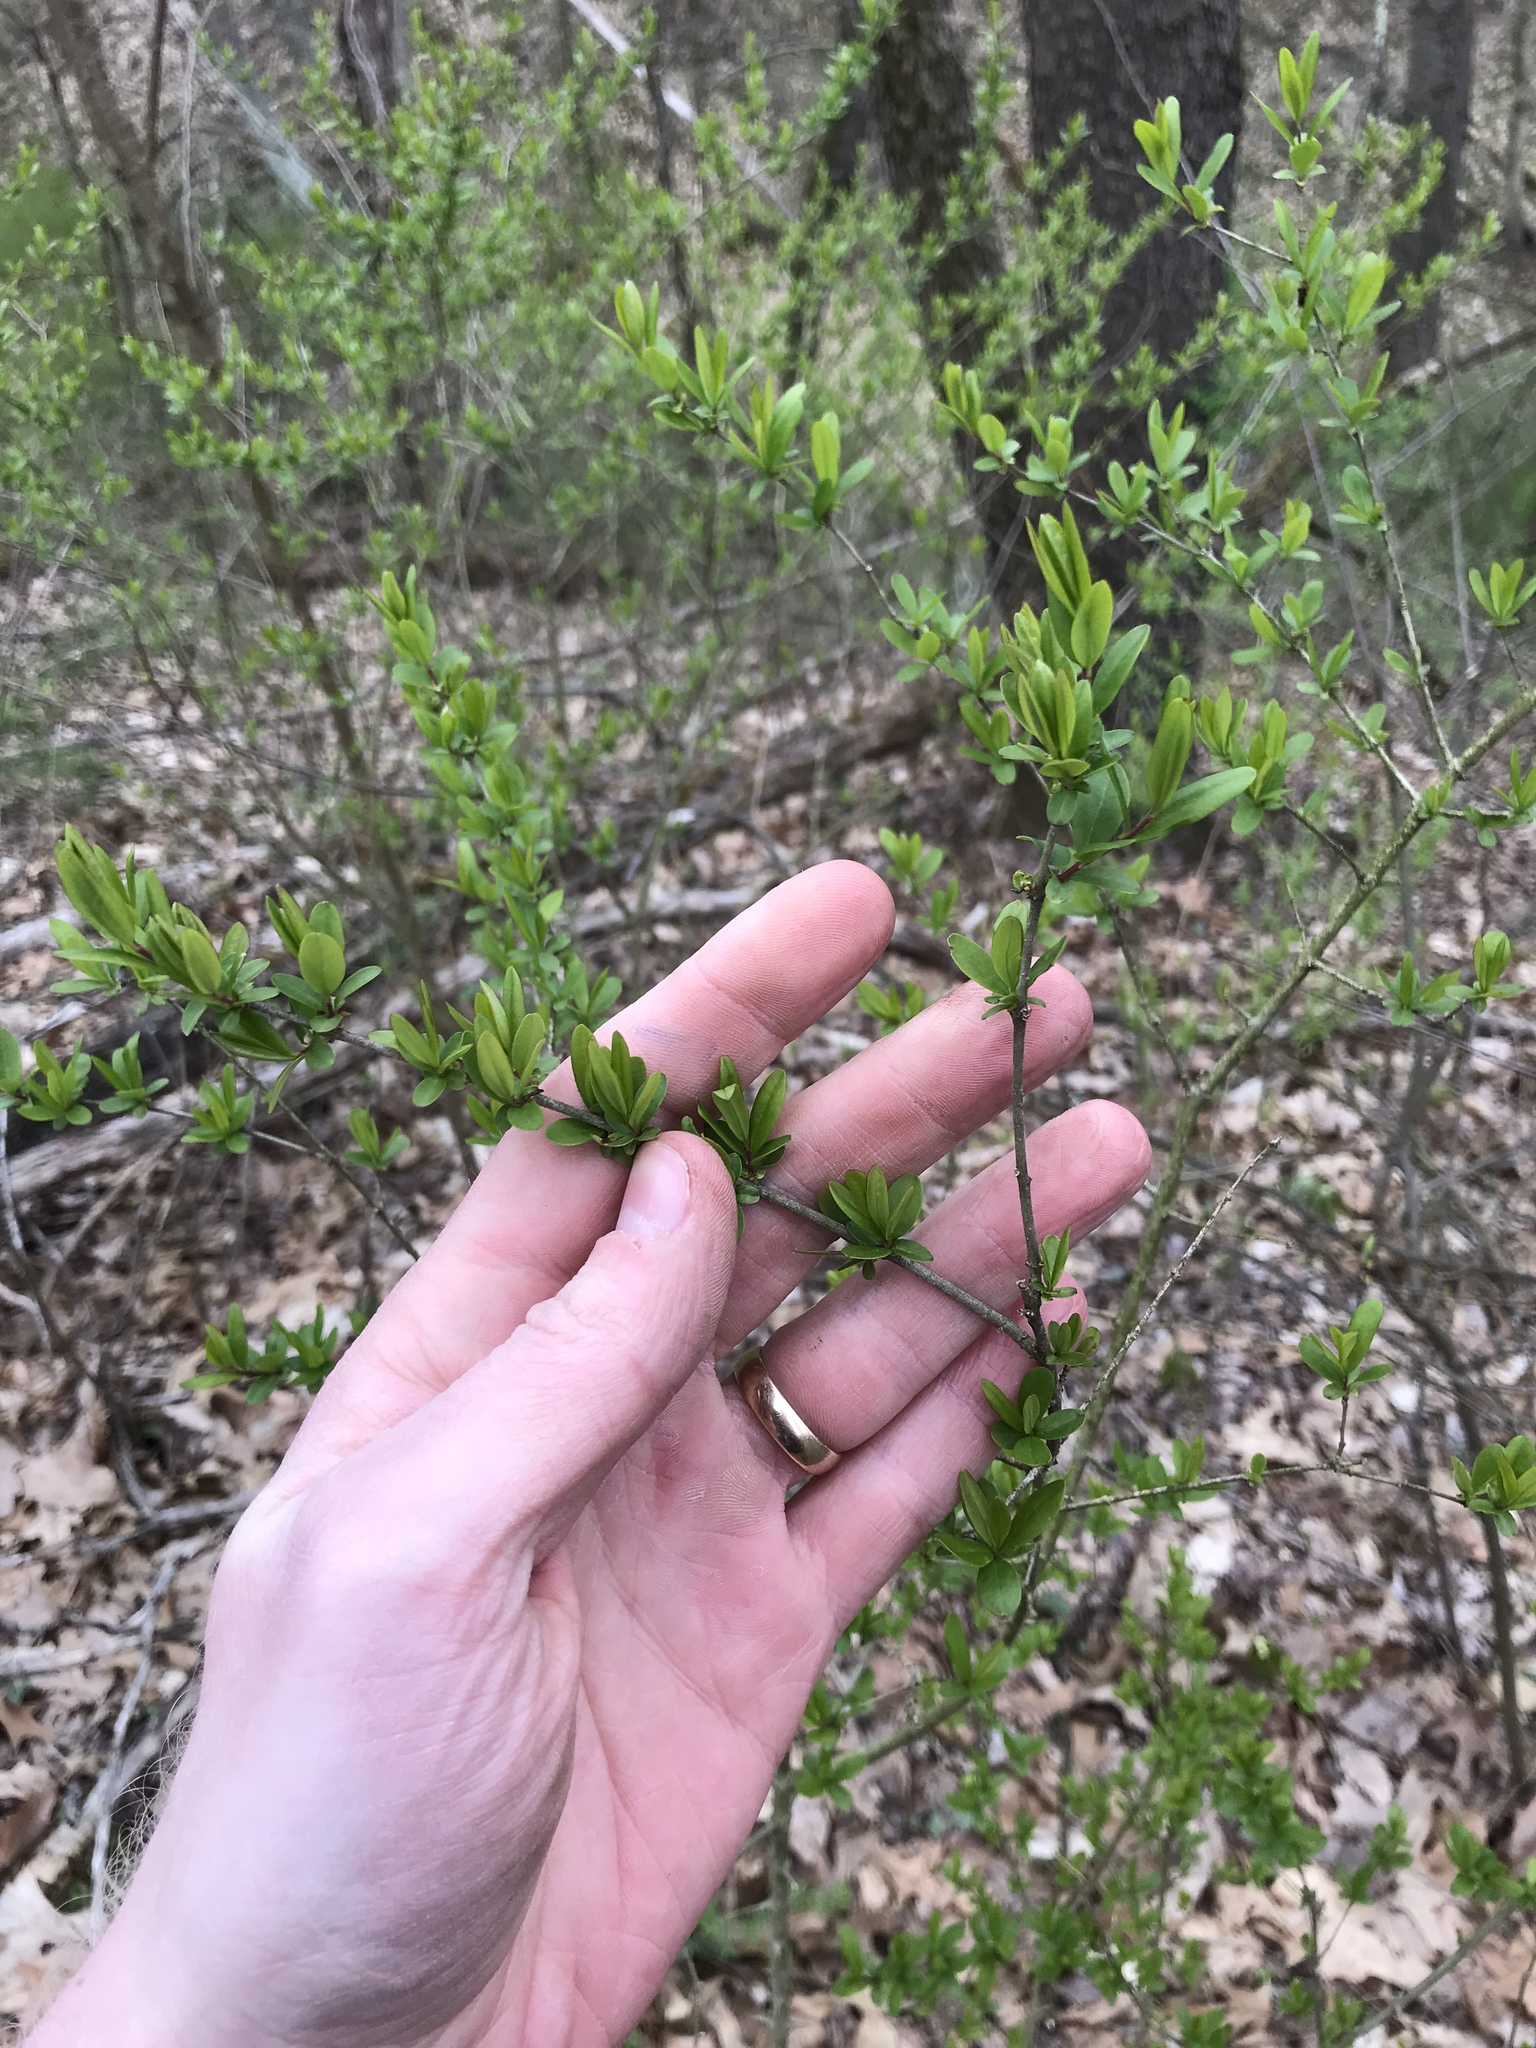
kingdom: Plantae
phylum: Tracheophyta
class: Magnoliopsida
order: Lamiales
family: Oleaceae
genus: Ligustrum
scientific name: Ligustrum
